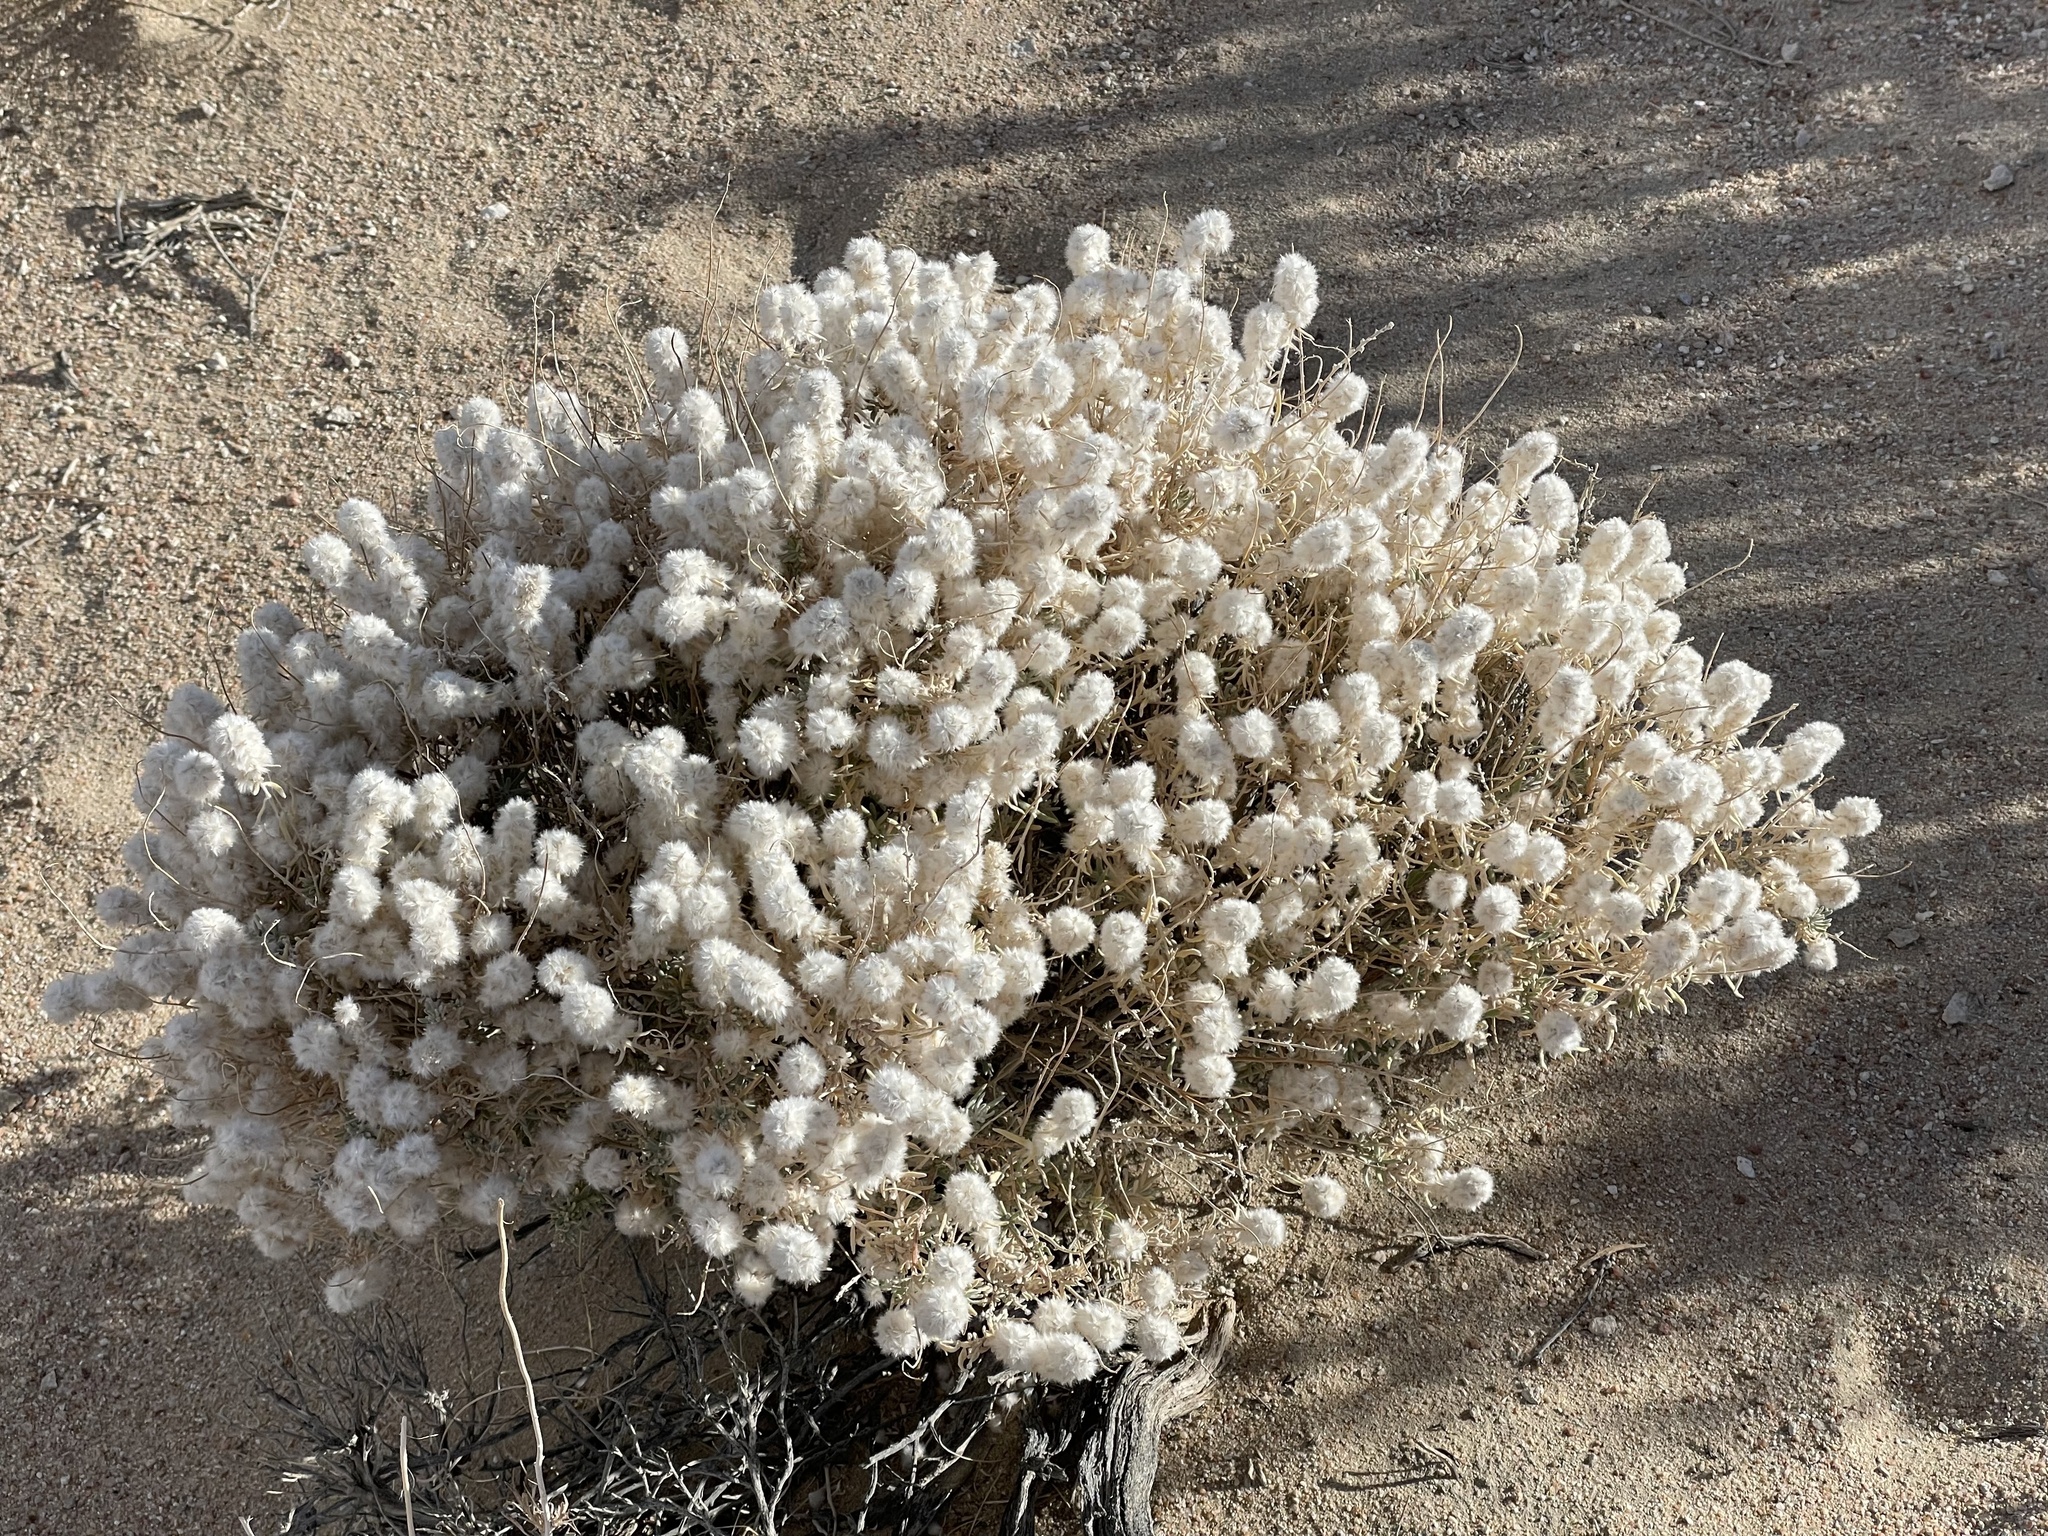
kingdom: Plantae
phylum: Tracheophyta
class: Magnoliopsida
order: Caryophyllales
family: Amaranthaceae
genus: Krascheninnikovia
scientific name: Krascheninnikovia lanata
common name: Winterfat
